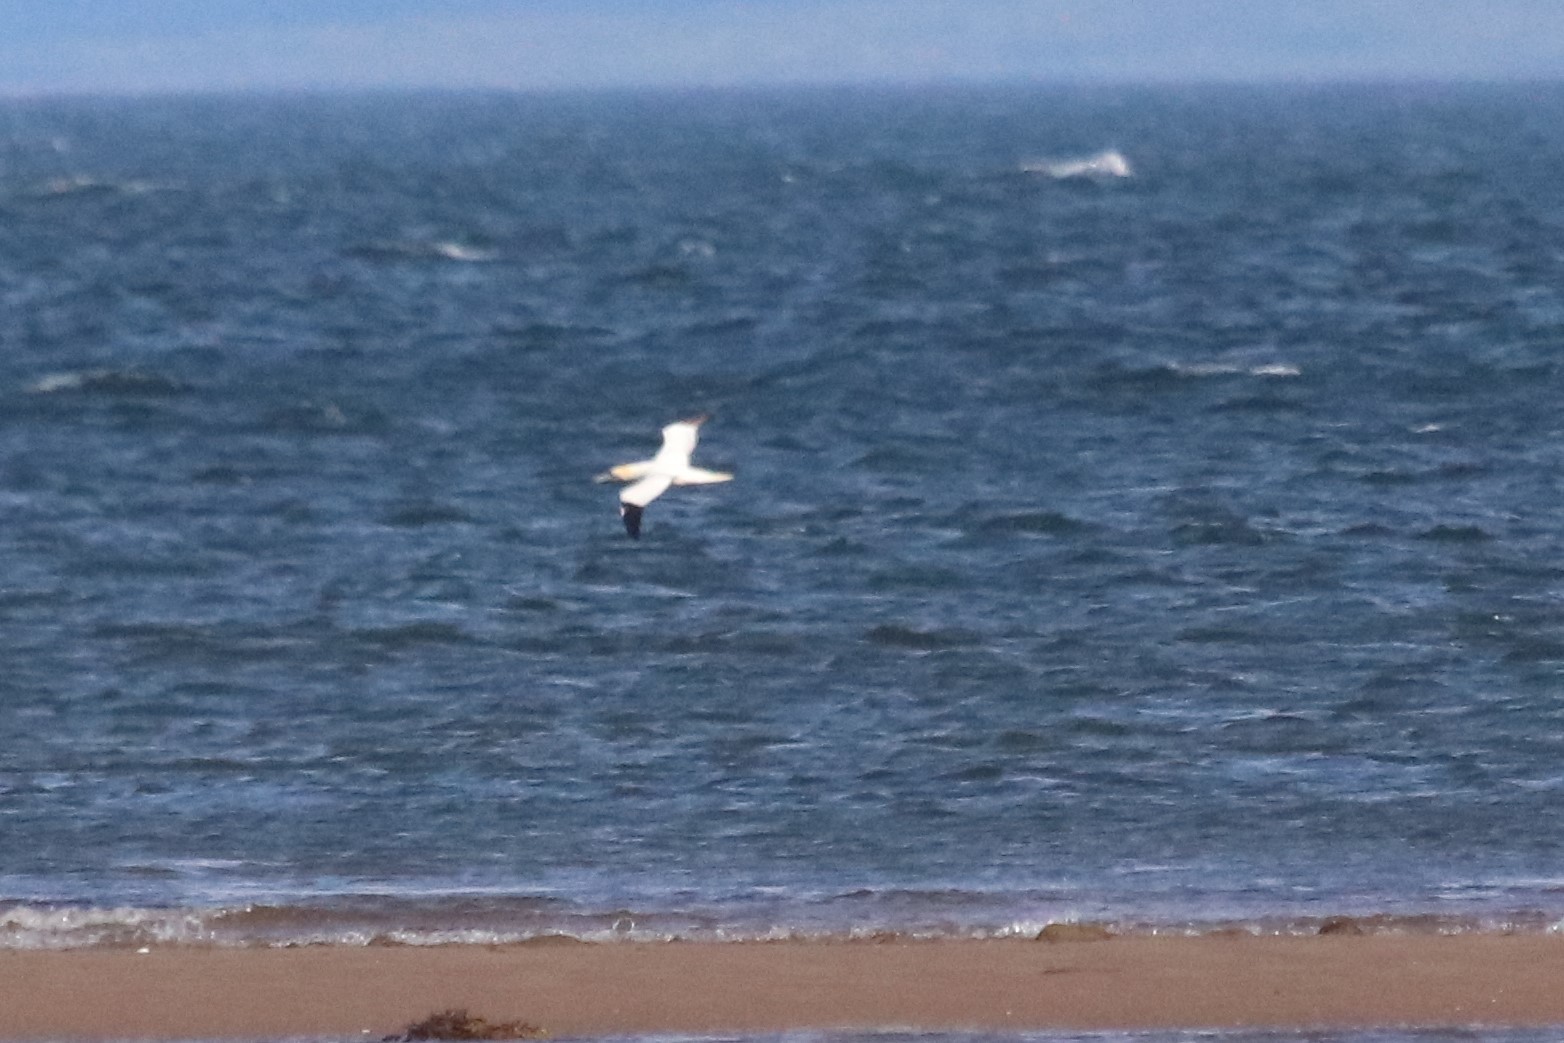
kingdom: Animalia
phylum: Chordata
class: Aves
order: Suliformes
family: Sulidae
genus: Morus
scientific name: Morus bassanus
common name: Northern gannet
